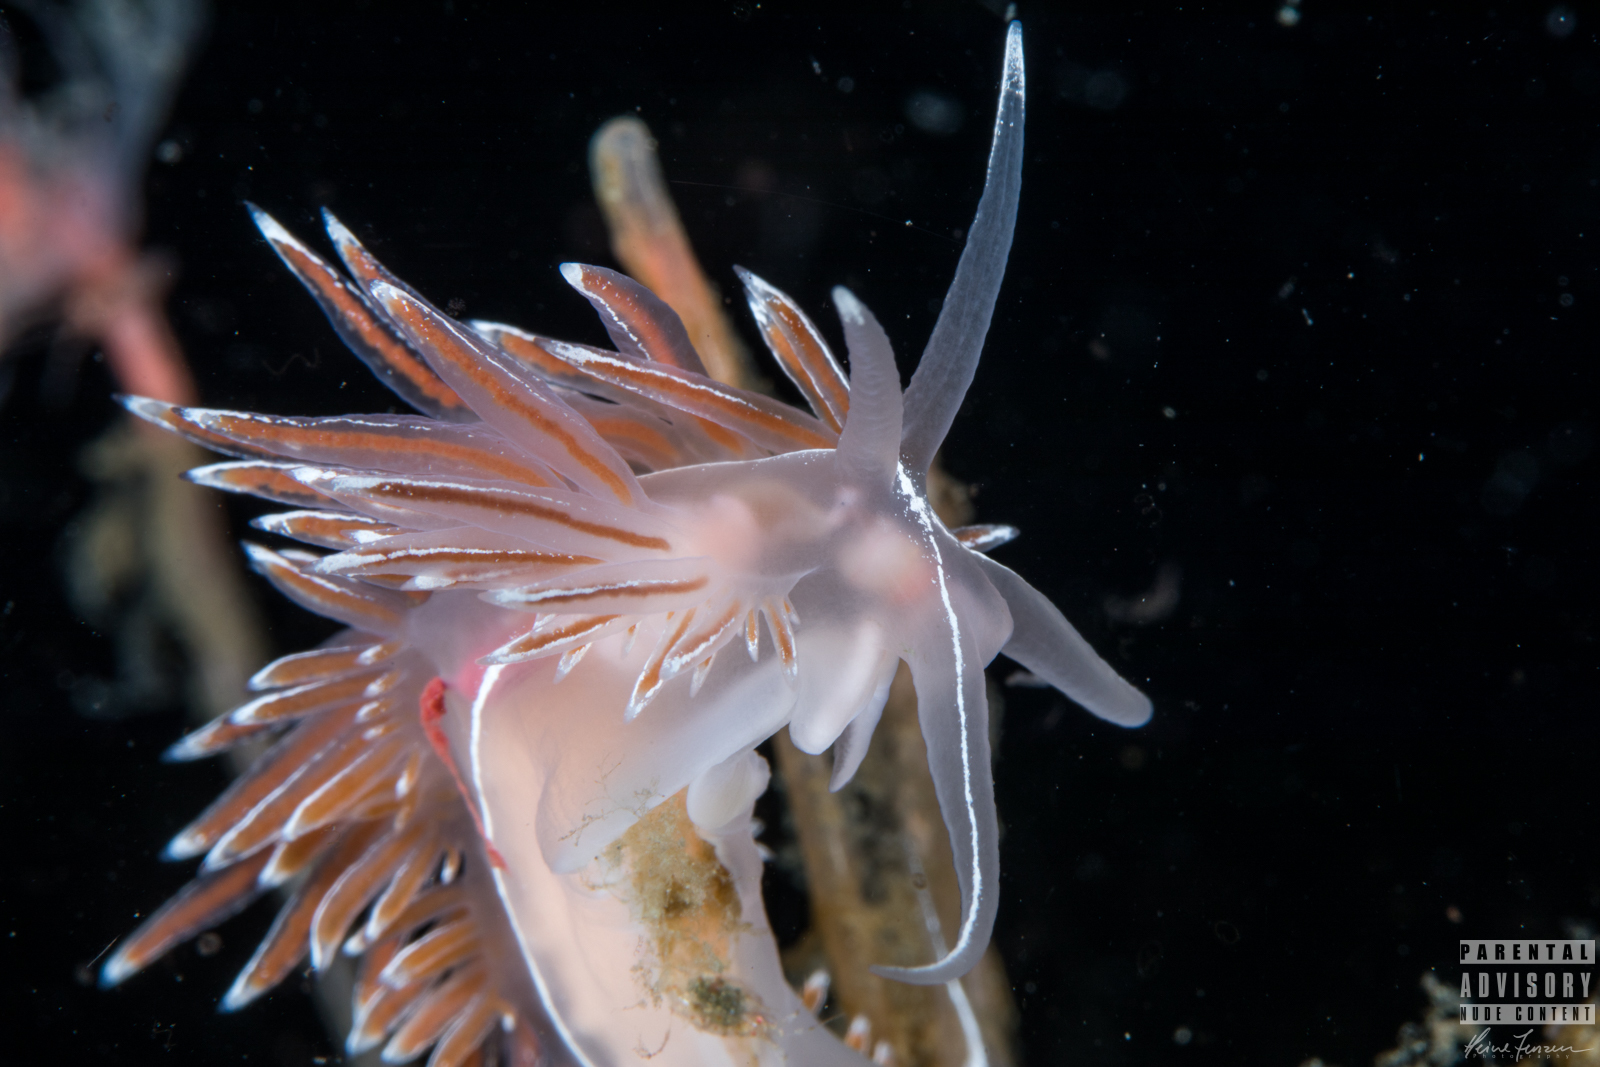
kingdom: Animalia
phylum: Mollusca
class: Gastropoda
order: Nudibranchia
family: Coryphellidae
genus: Coryphella
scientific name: Coryphella lineata
